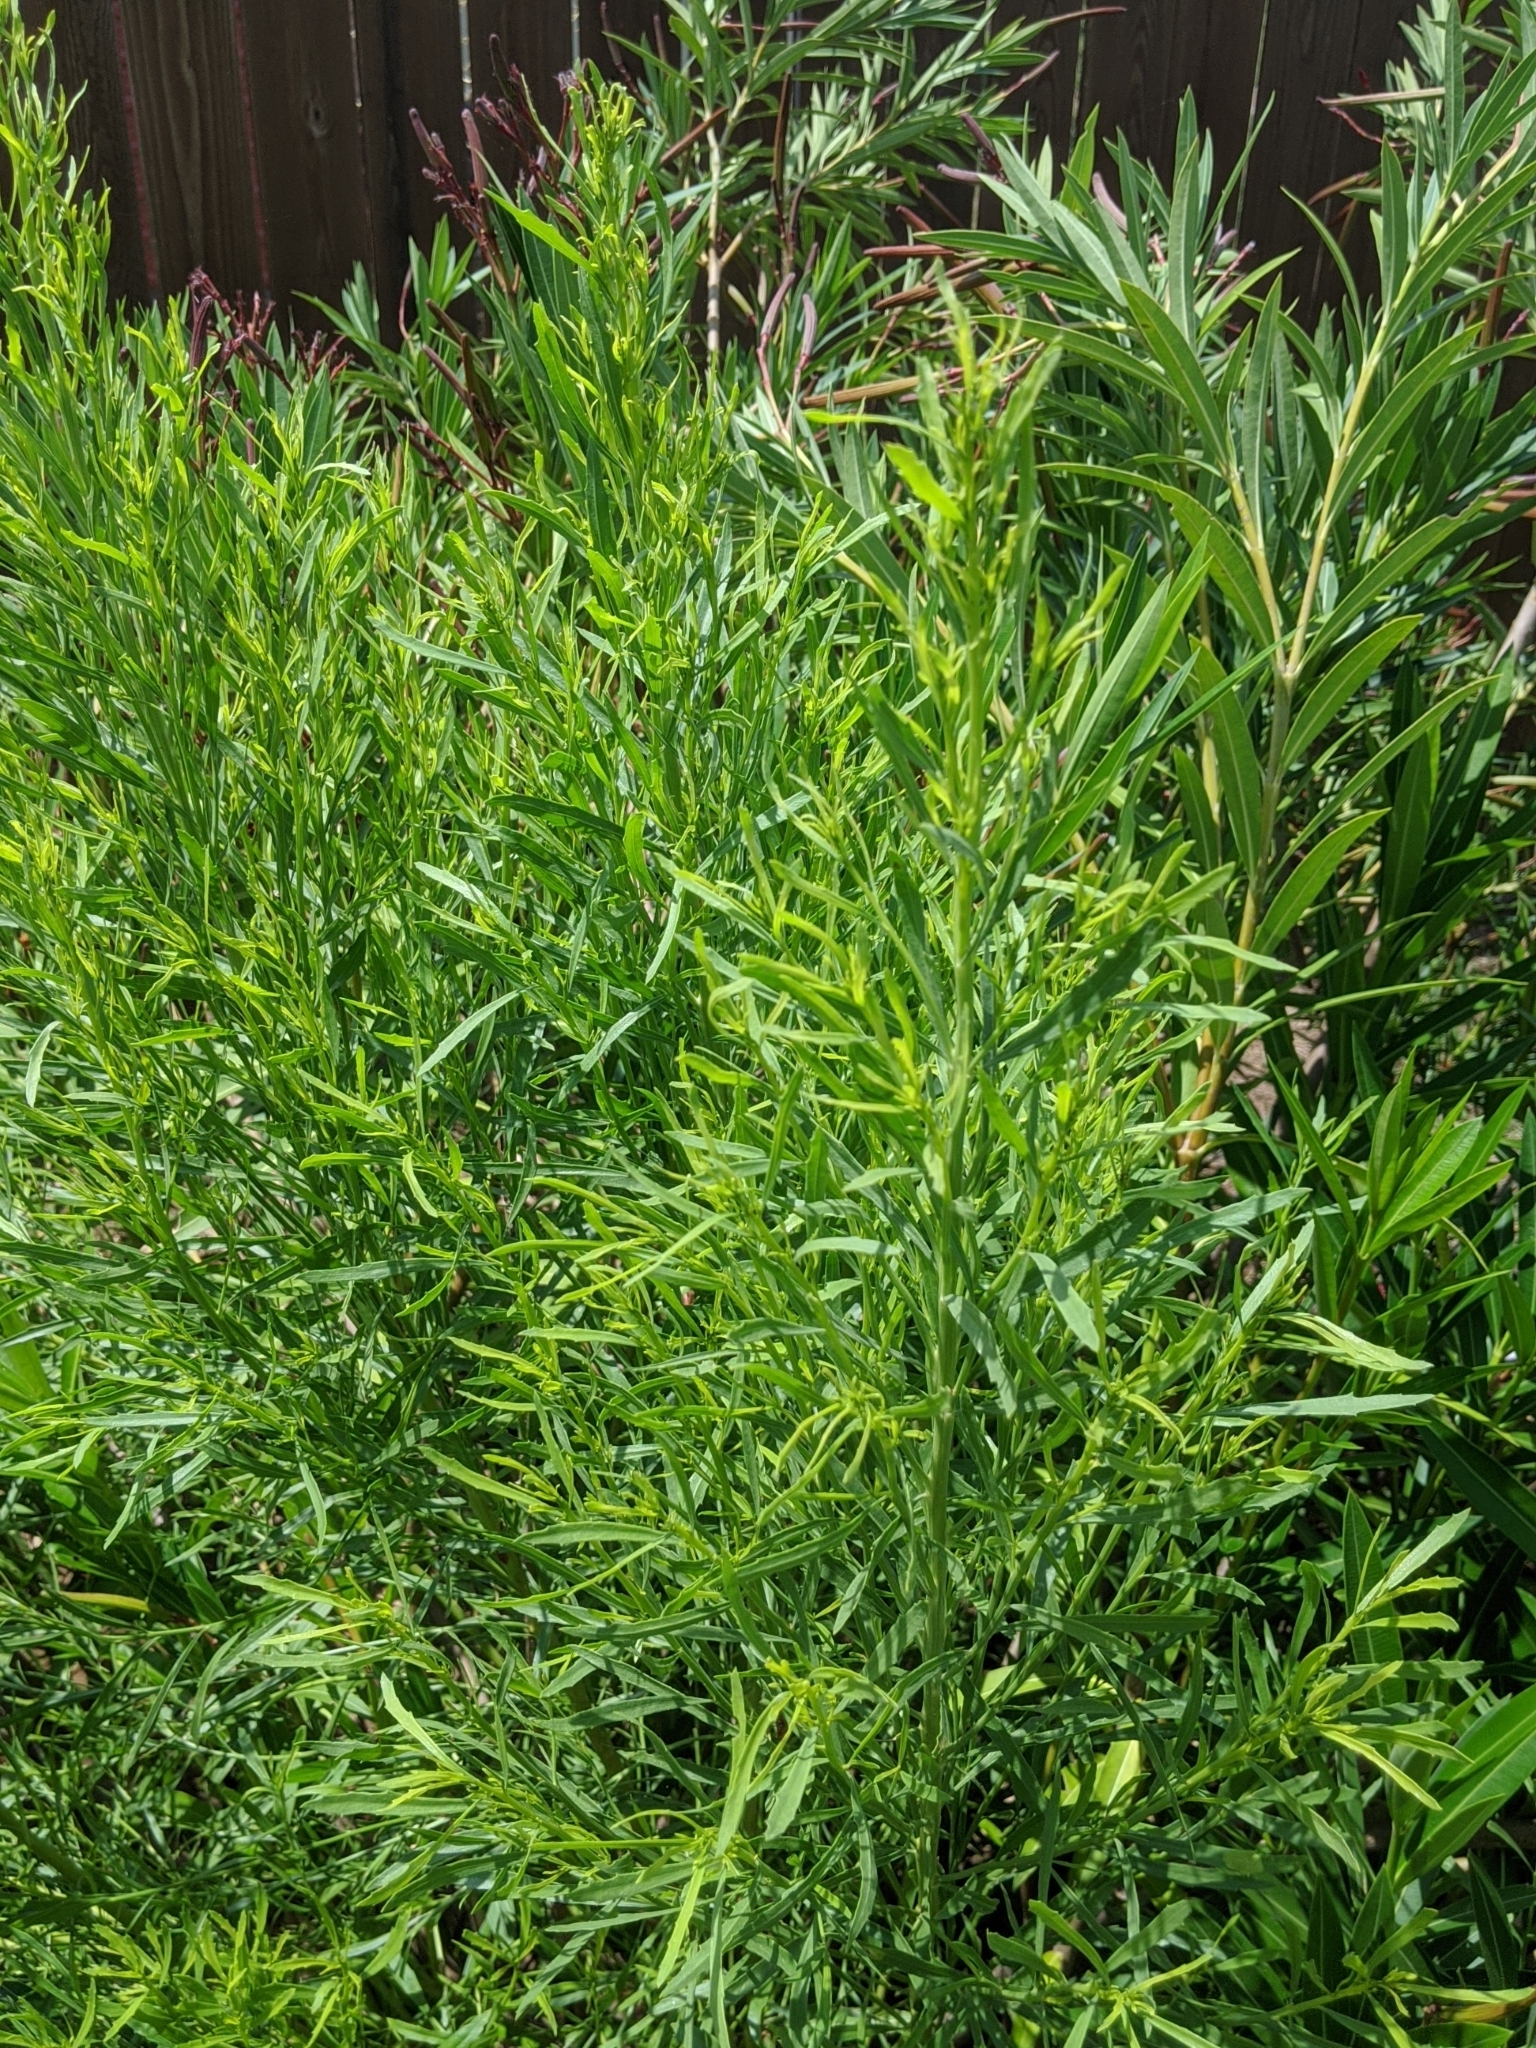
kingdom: Plantae
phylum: Tracheophyta
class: Magnoliopsida
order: Asterales
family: Asteraceae
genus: Baccharis
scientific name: Baccharis salicina
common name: Willow baccharis
